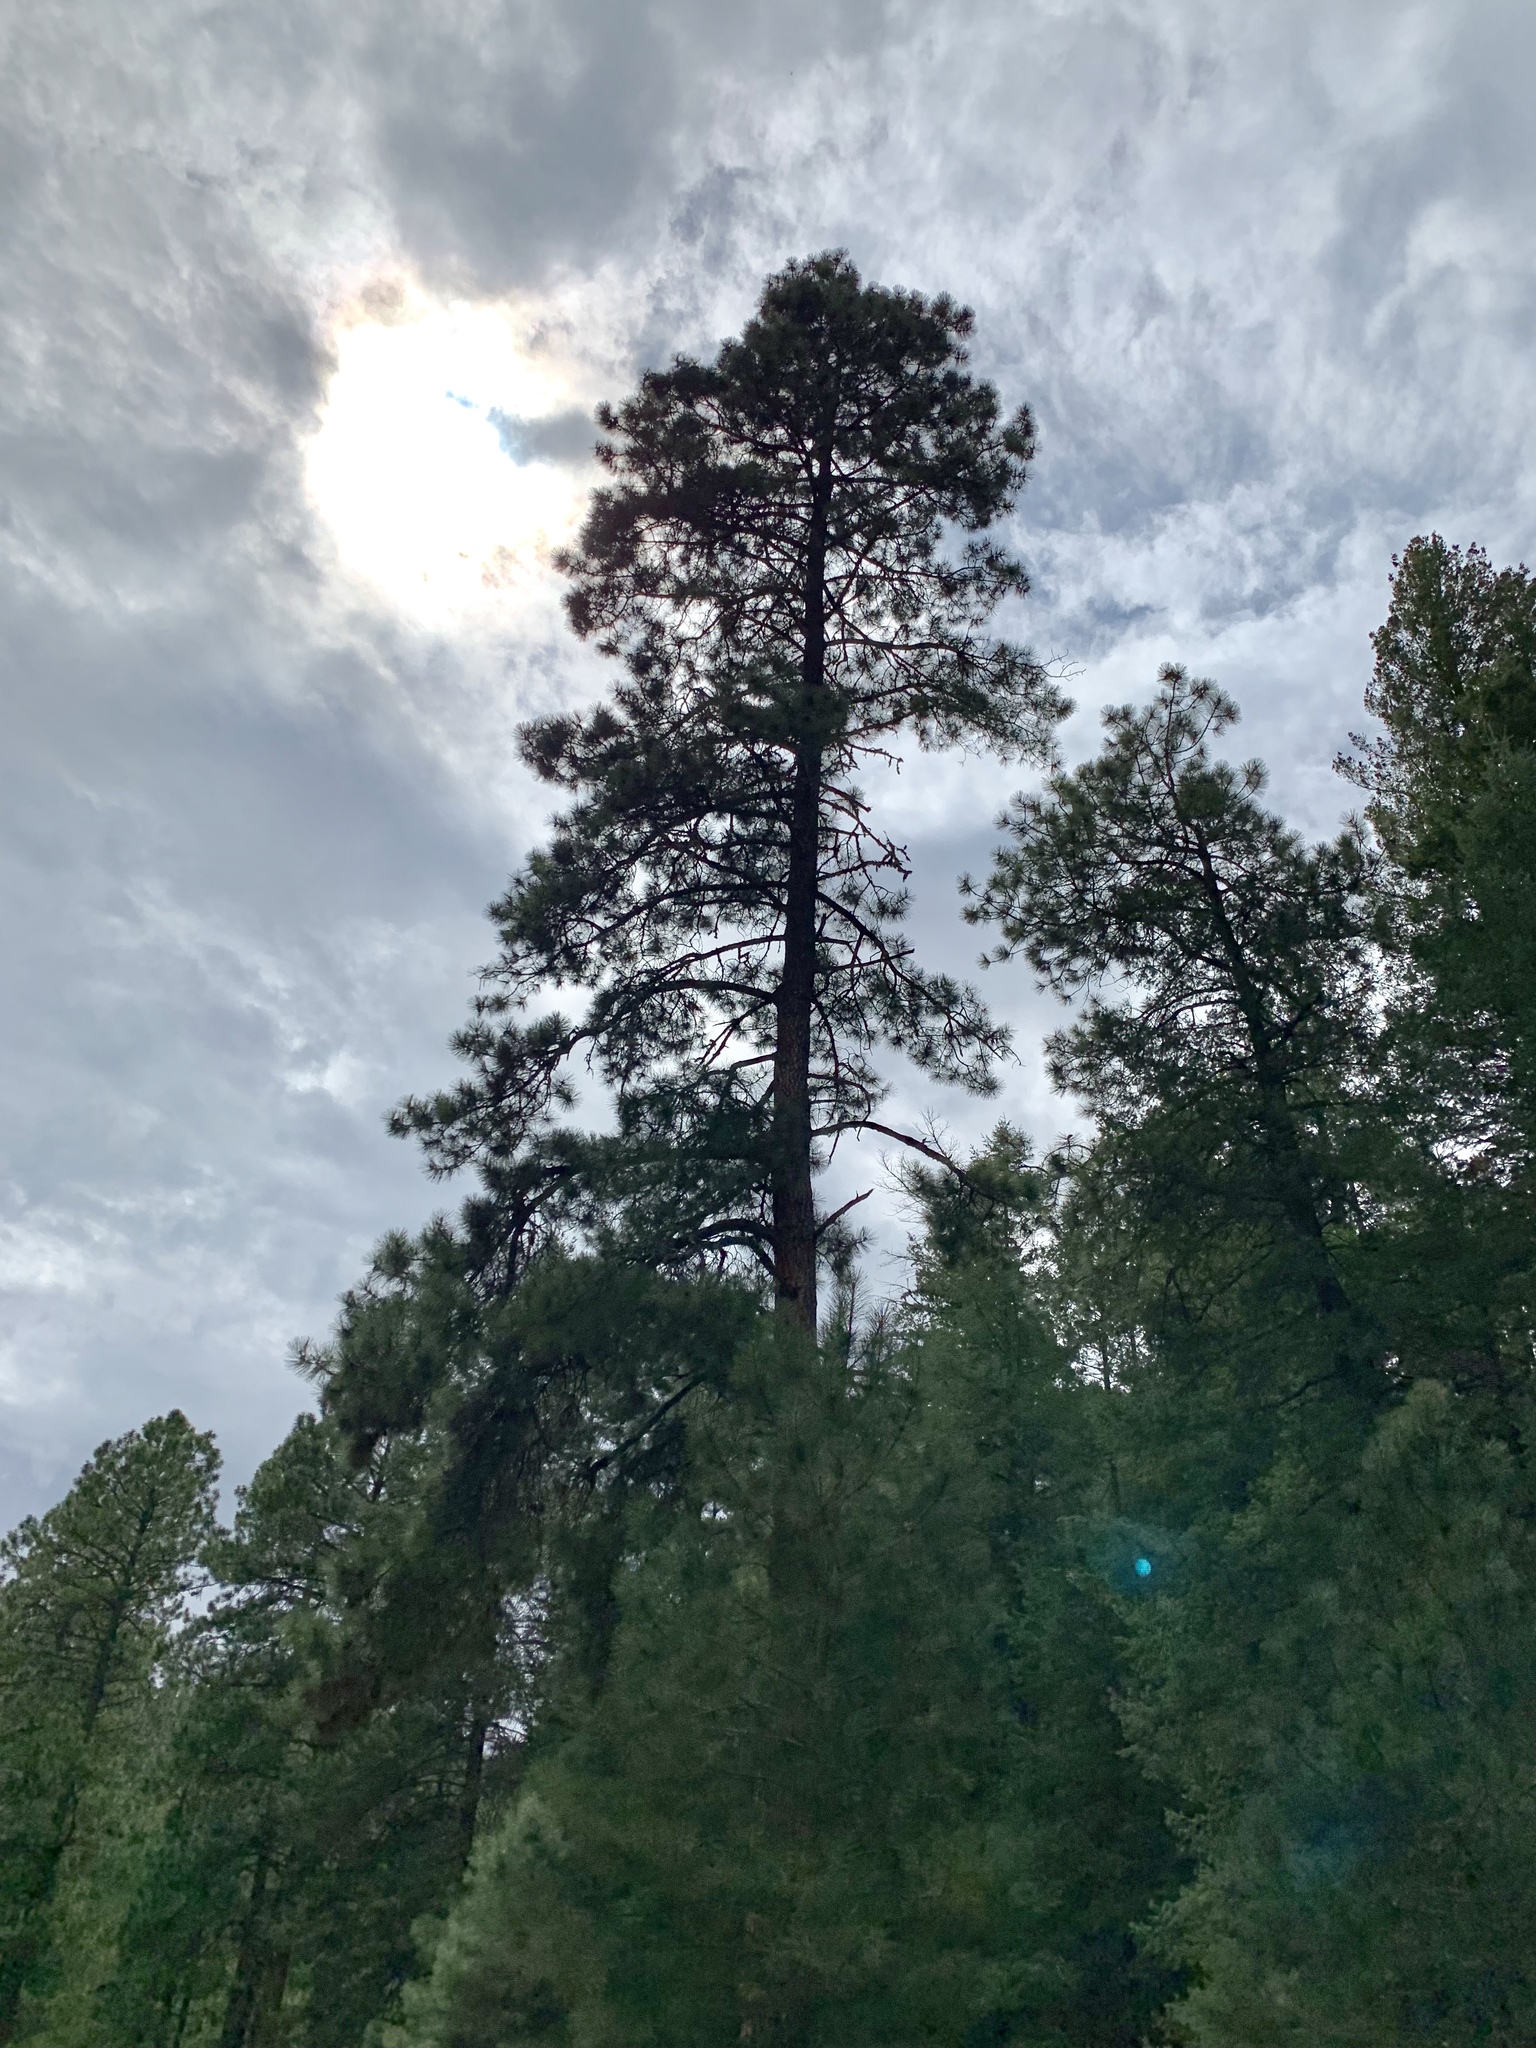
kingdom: Plantae
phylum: Tracheophyta
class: Pinopsida
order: Pinales
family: Pinaceae
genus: Pinus
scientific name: Pinus ponderosa
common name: Western yellow-pine
